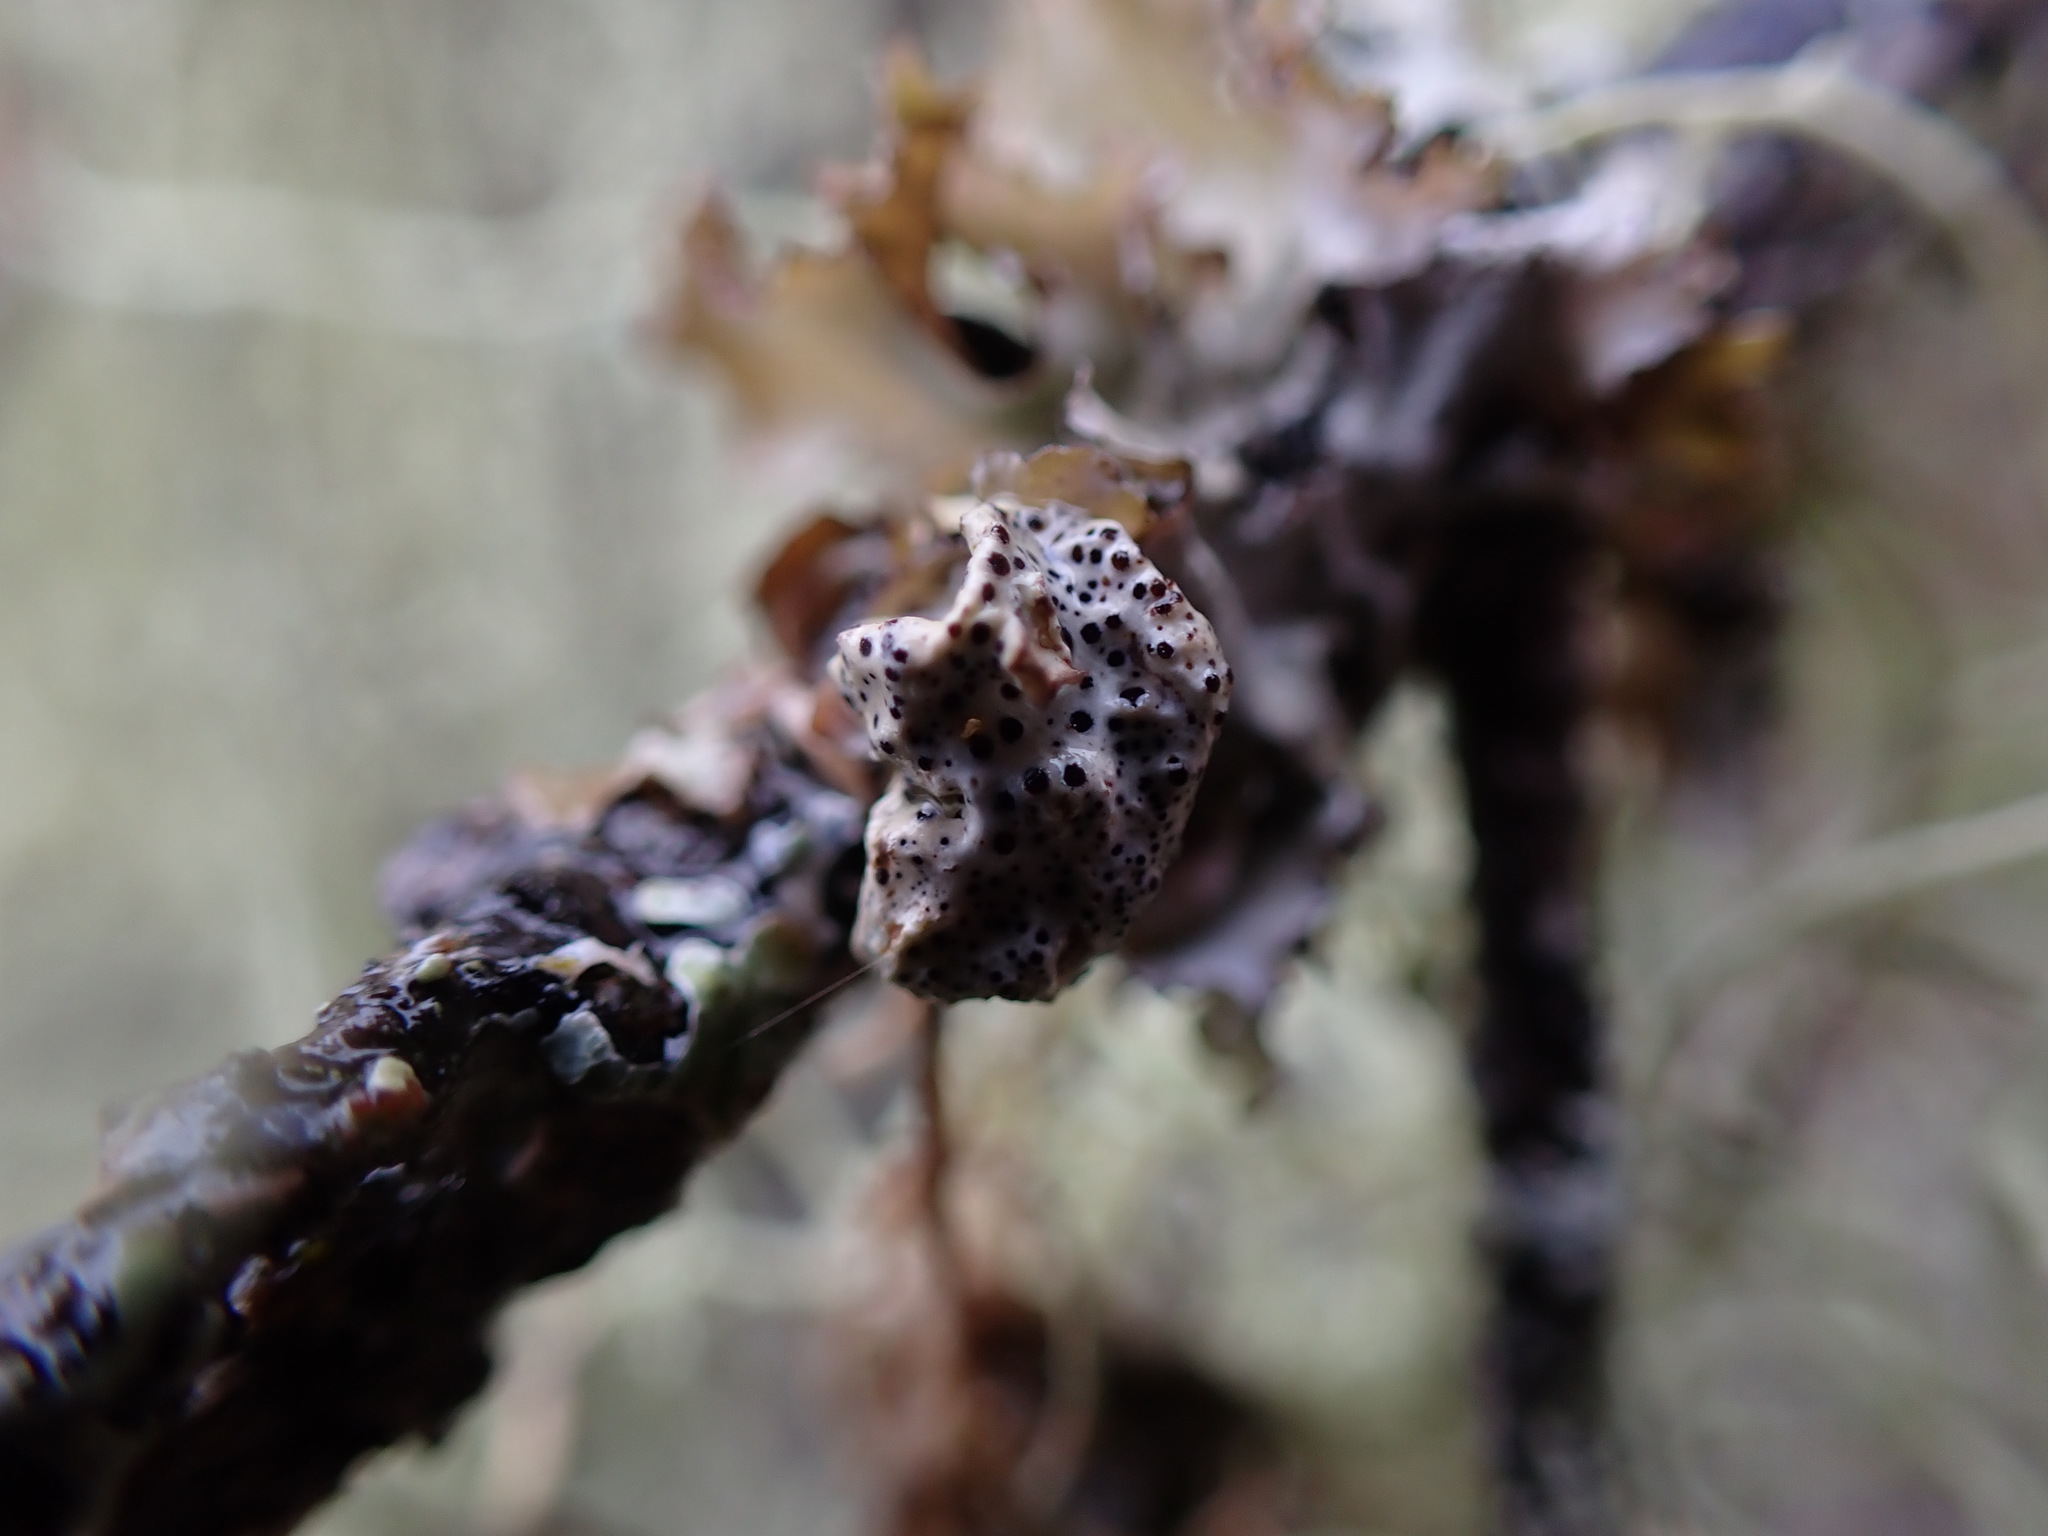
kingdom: Fungi
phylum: Ascomycota
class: Lecanoromycetes
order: Lecanorales
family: Parmeliaceae
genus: Punctelia
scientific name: Punctelia oxyspora
